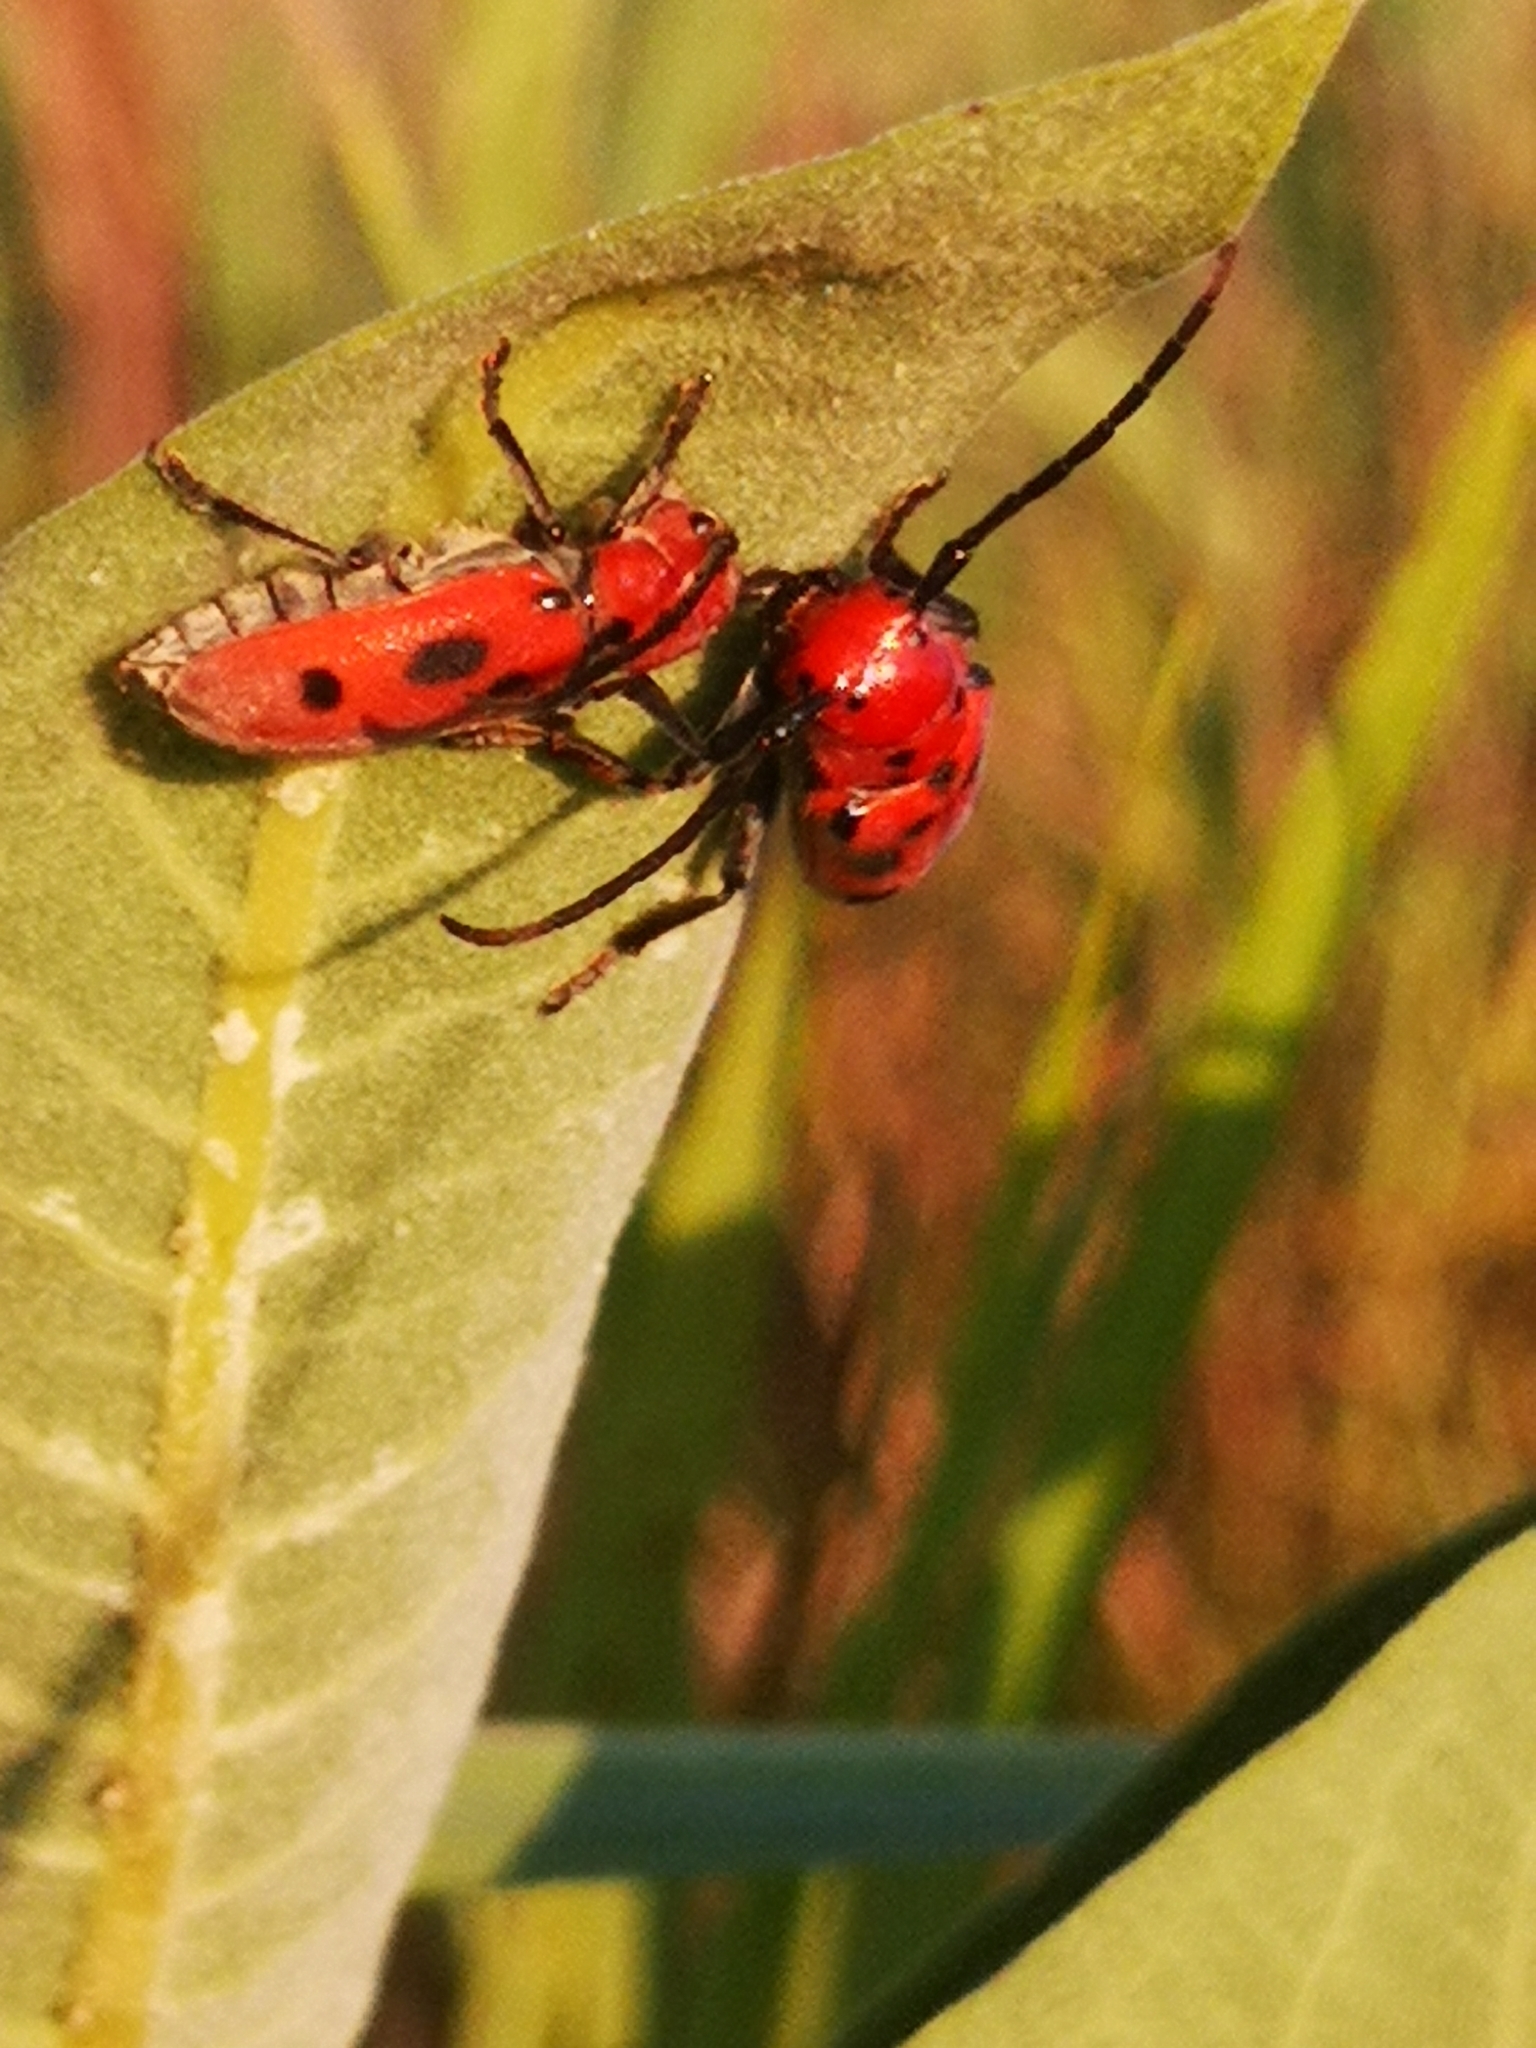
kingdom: Animalia
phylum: Arthropoda
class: Insecta
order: Coleoptera
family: Cerambycidae
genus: Tetraopes
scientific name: Tetraopes tetrophthalmus
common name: Red milkweed beetle
